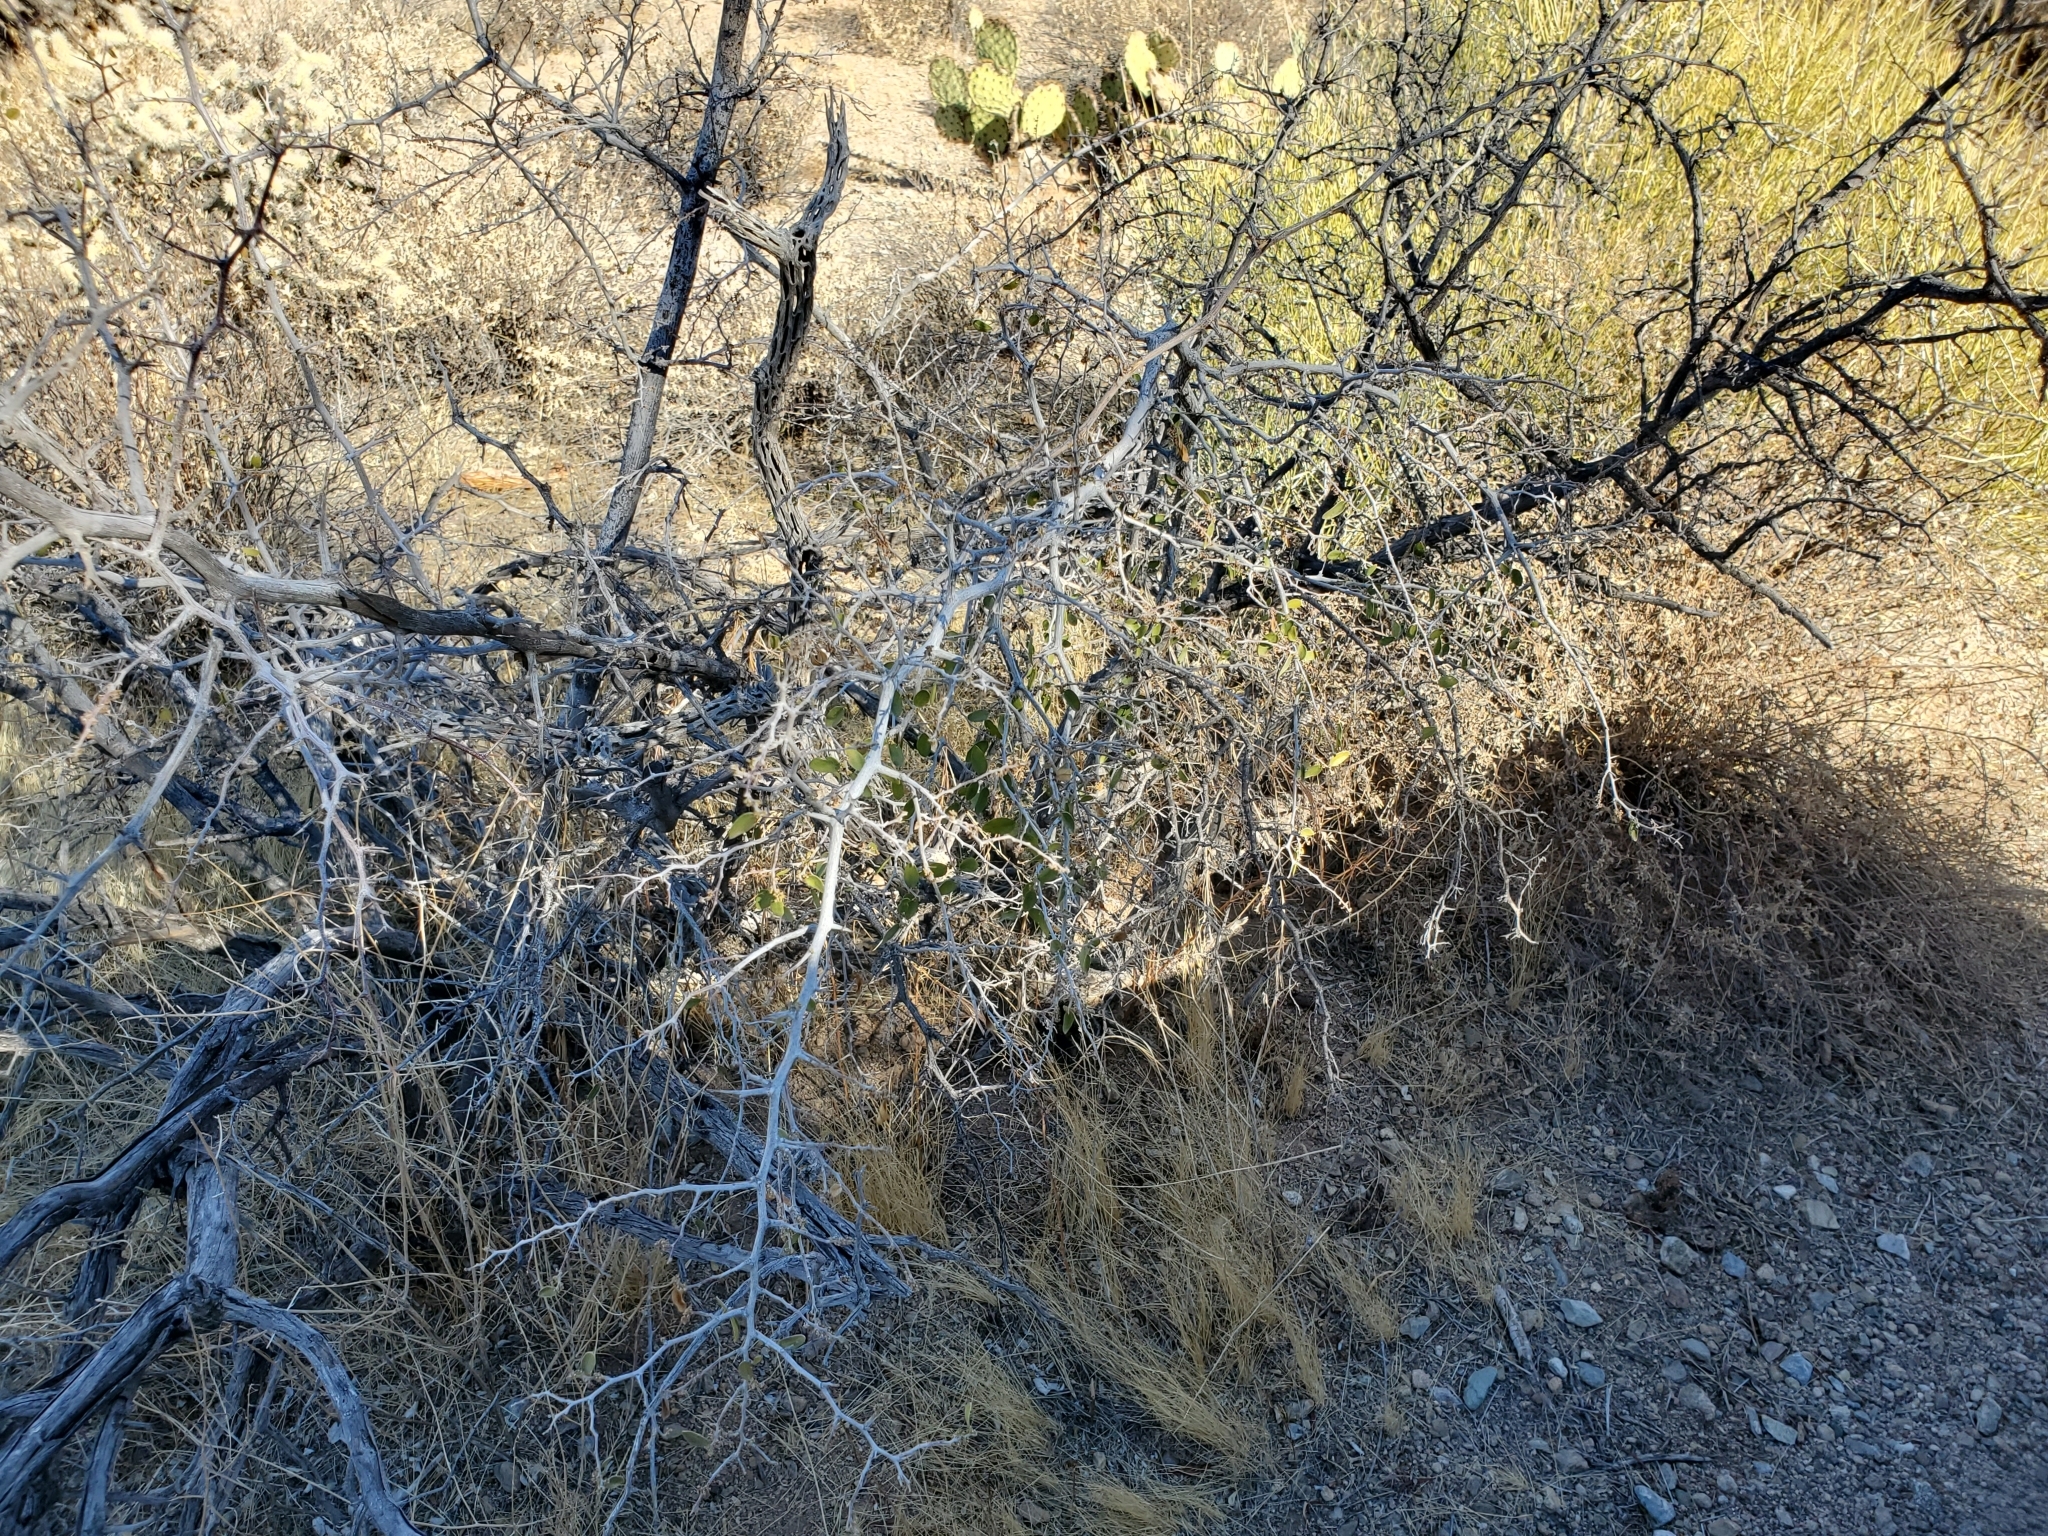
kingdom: Plantae
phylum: Tracheophyta
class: Magnoliopsida
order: Rosales
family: Cannabaceae
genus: Celtis
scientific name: Celtis pallida
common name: Desert hackberry
